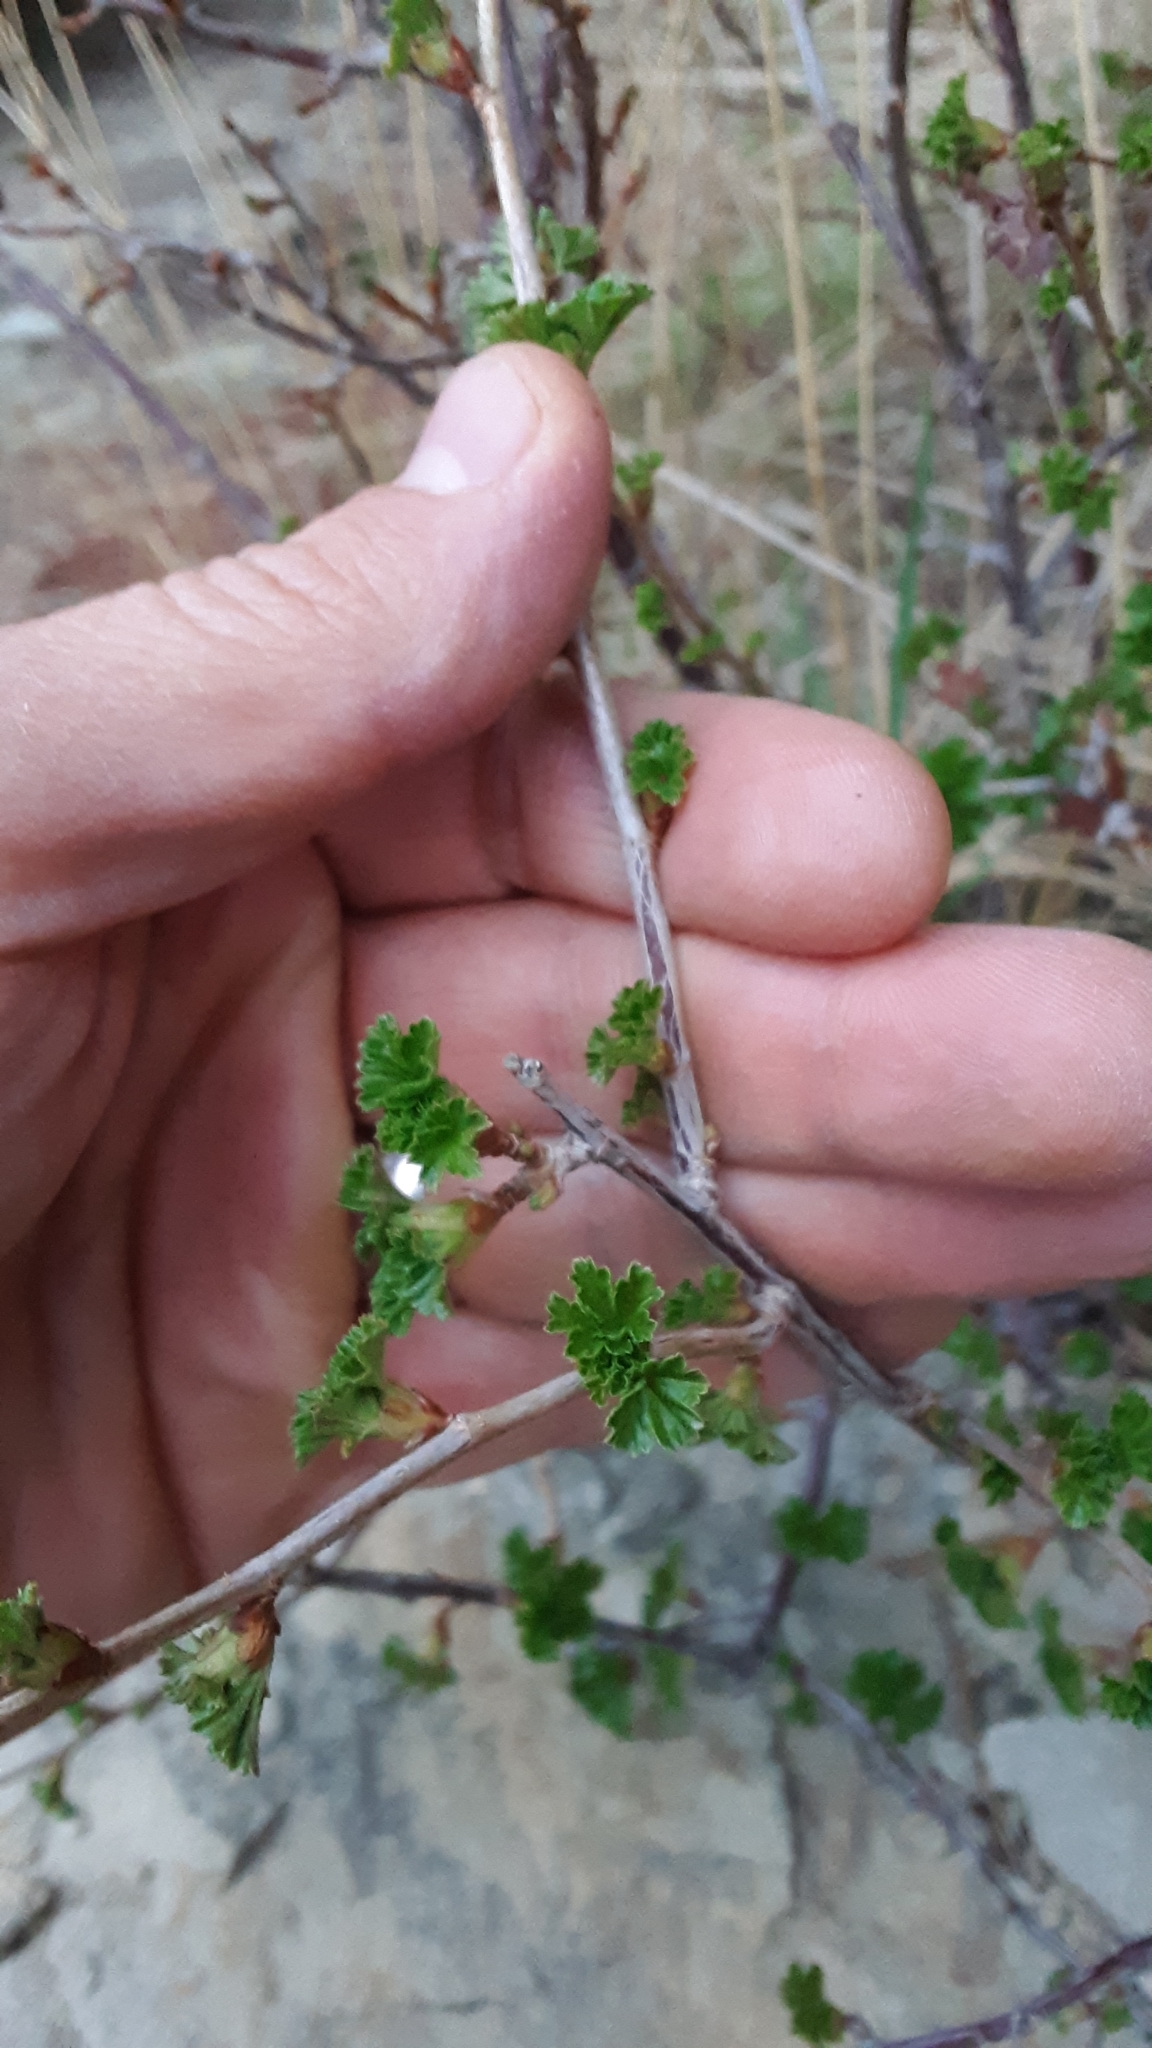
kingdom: Plantae
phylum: Tracheophyta
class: Magnoliopsida
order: Saxifragales
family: Grossulariaceae
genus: Ribes
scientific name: Ribes cereum
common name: Wax currant
